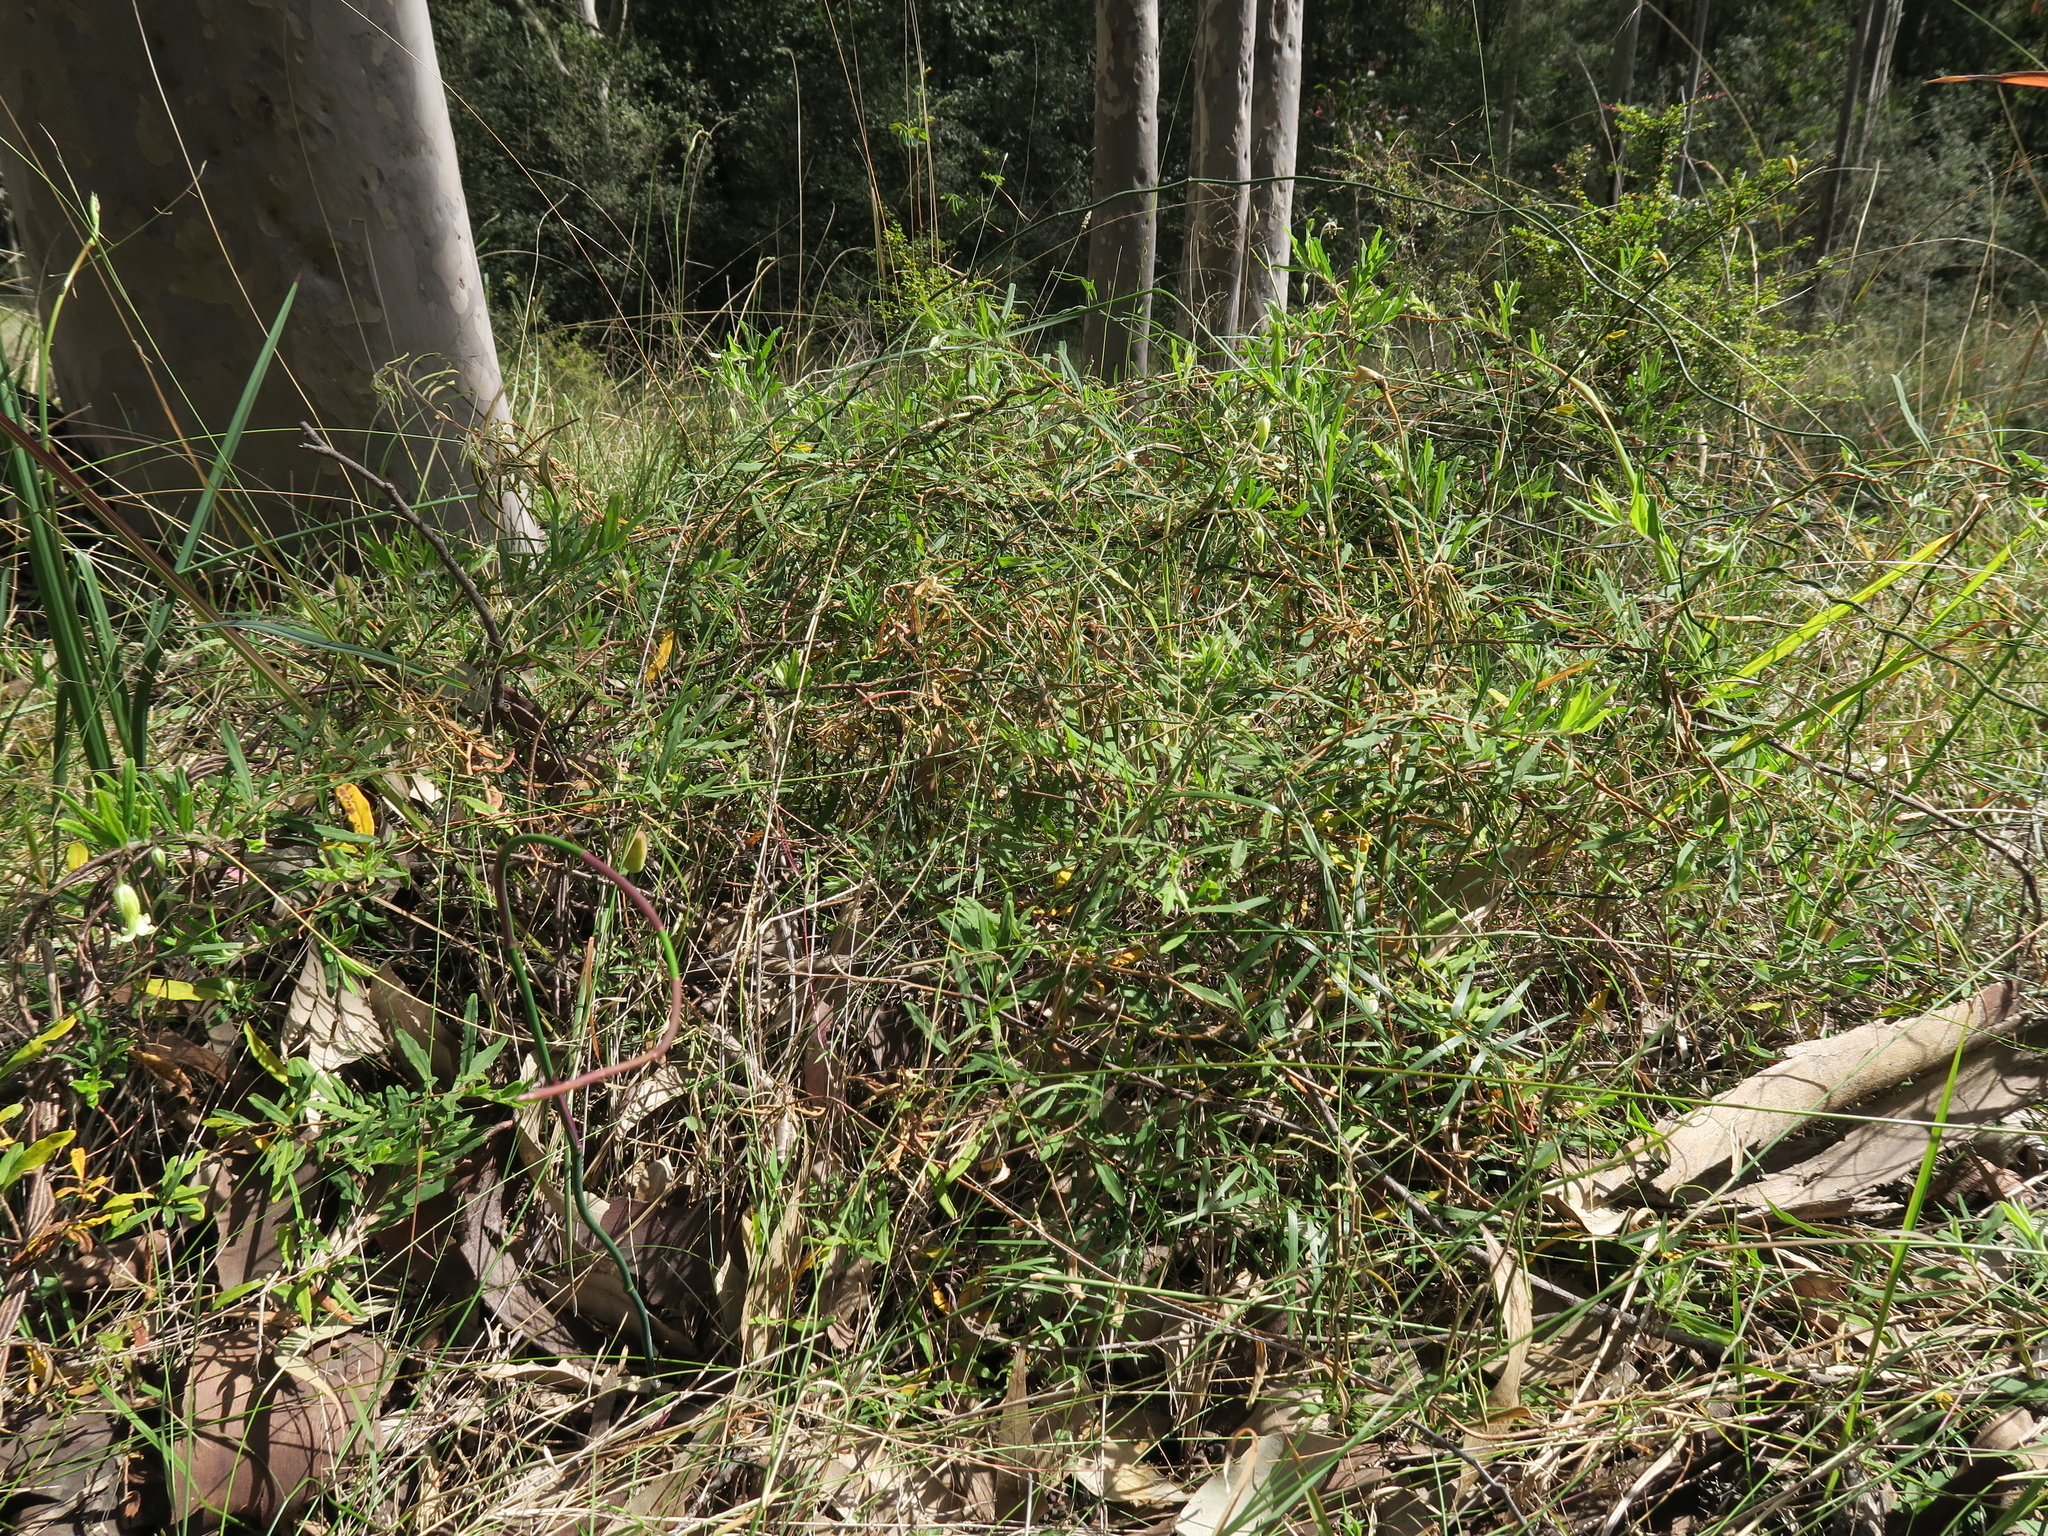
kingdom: Plantae
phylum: Tracheophyta
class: Magnoliopsida
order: Apiales
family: Pittosporaceae
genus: Billardiera
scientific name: Billardiera scandens
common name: Apple-berry
